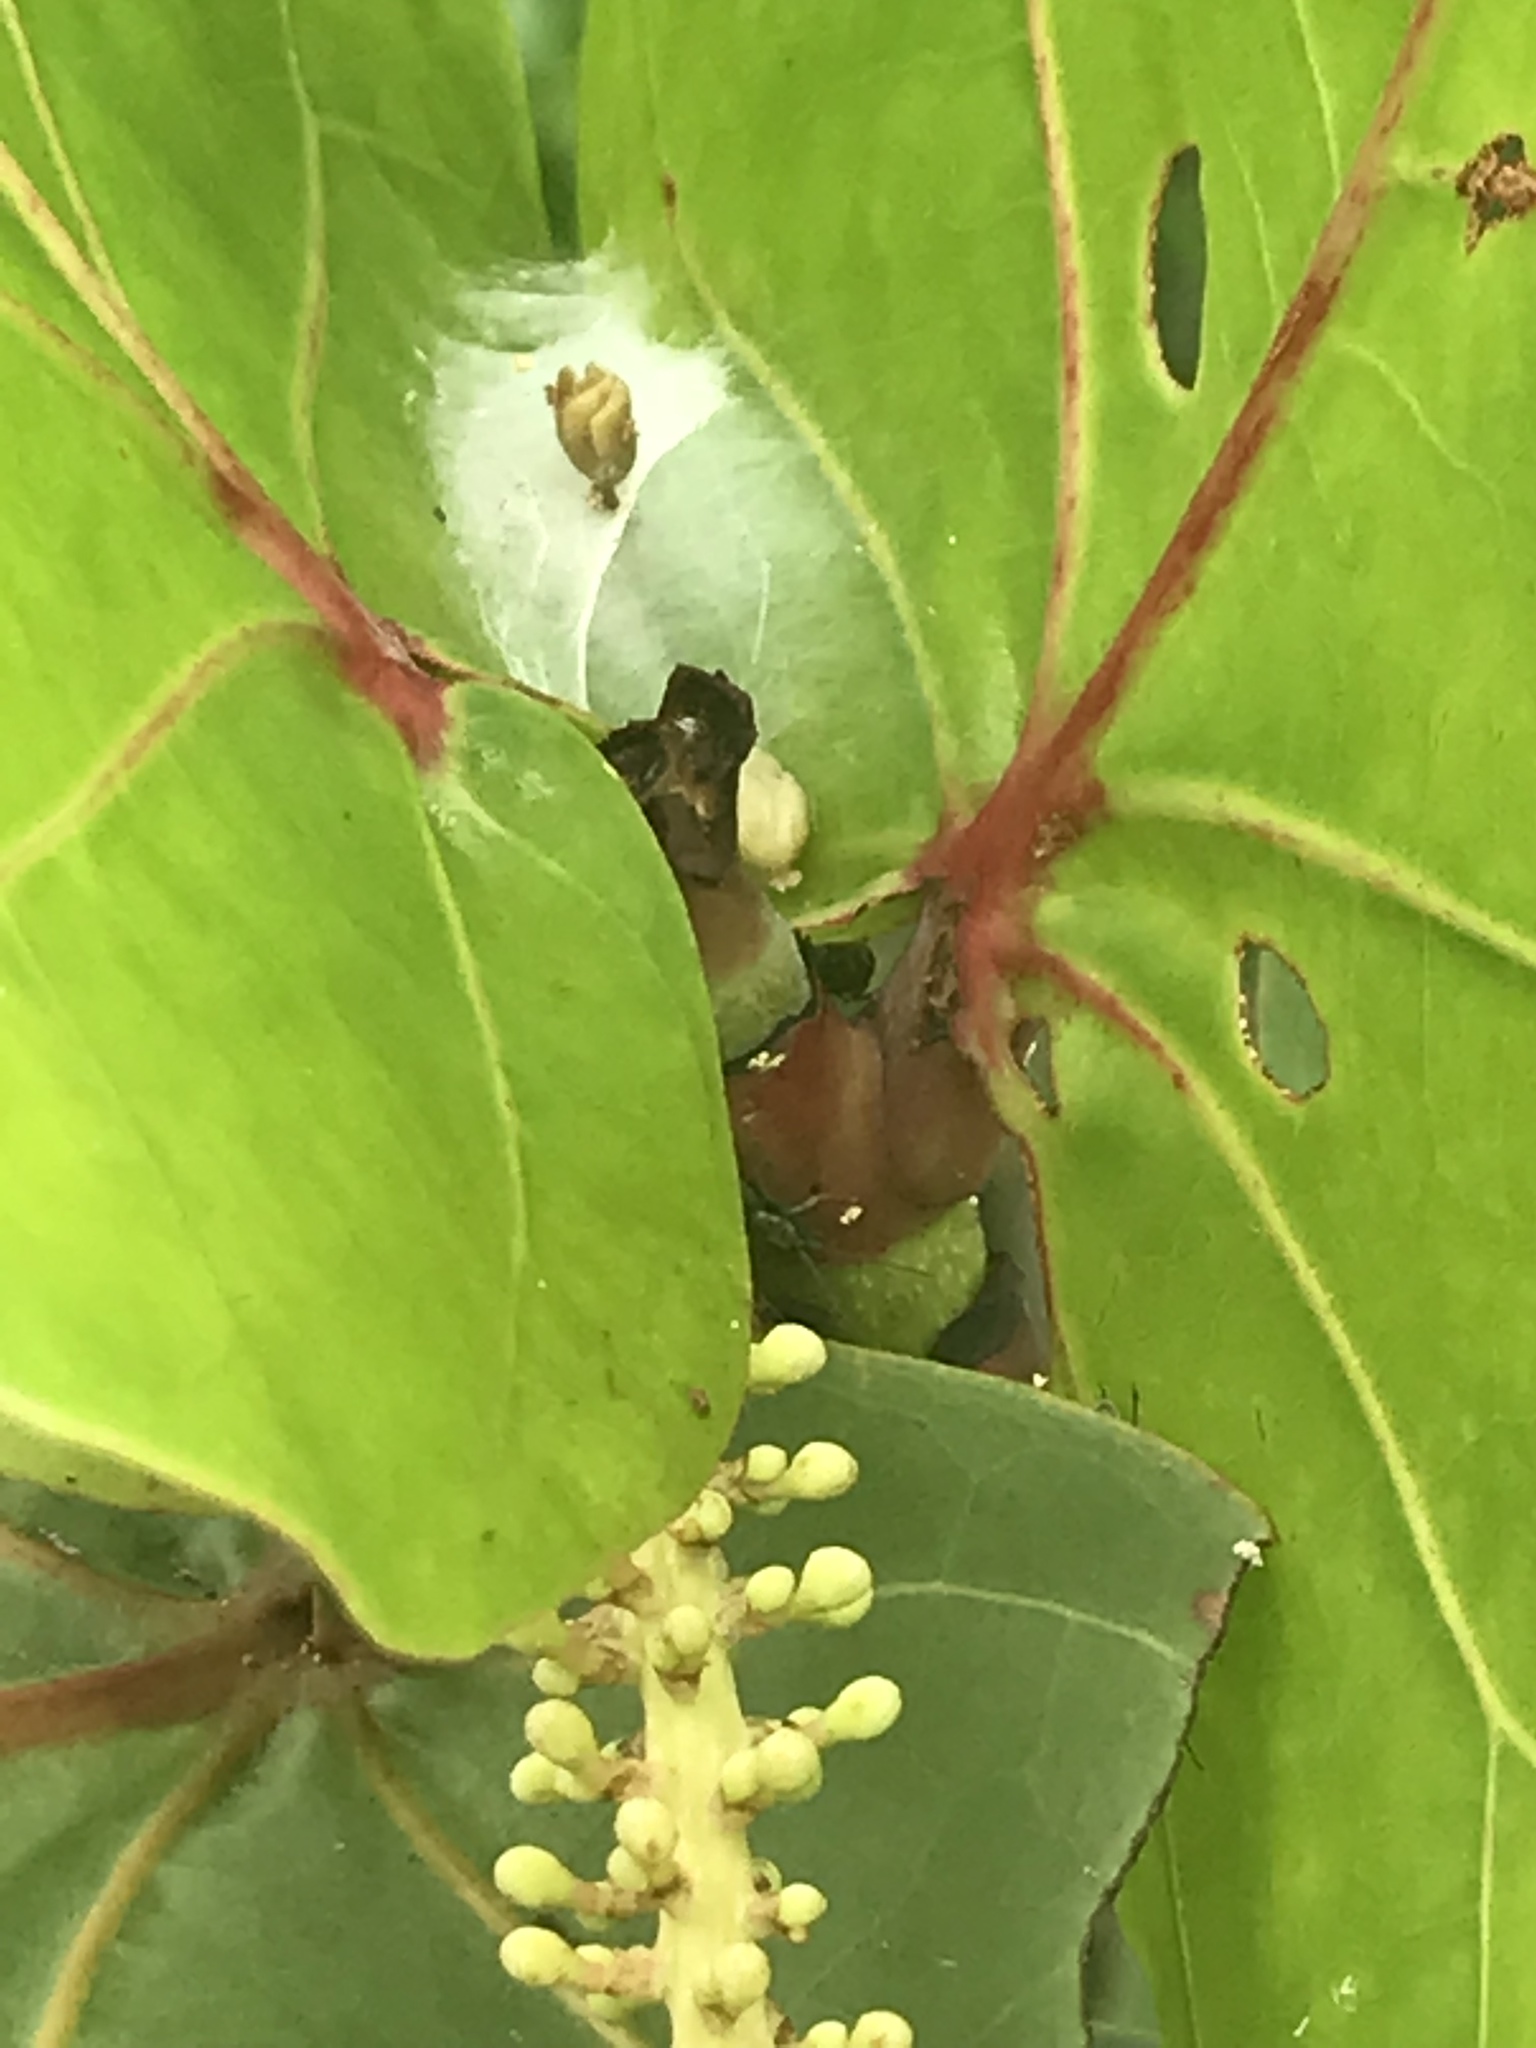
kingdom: Plantae
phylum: Tracheophyta
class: Magnoliopsida
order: Caryophyllales
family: Polygonaceae
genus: Coccoloba
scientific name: Coccoloba uvifera
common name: Seagrape
